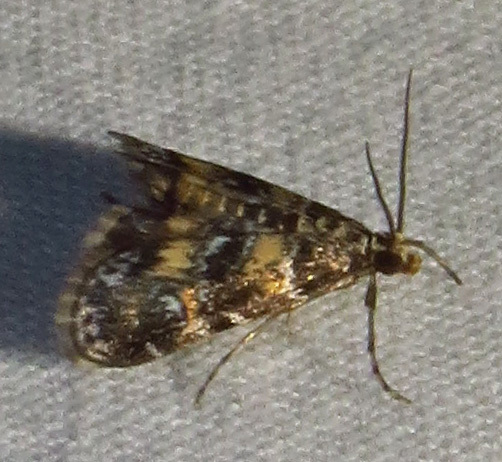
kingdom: Animalia
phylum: Arthropoda
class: Insecta
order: Lepidoptera
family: Crambidae
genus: Elophila
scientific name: Elophila obliteralis
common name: Waterlily leafcutter moth
